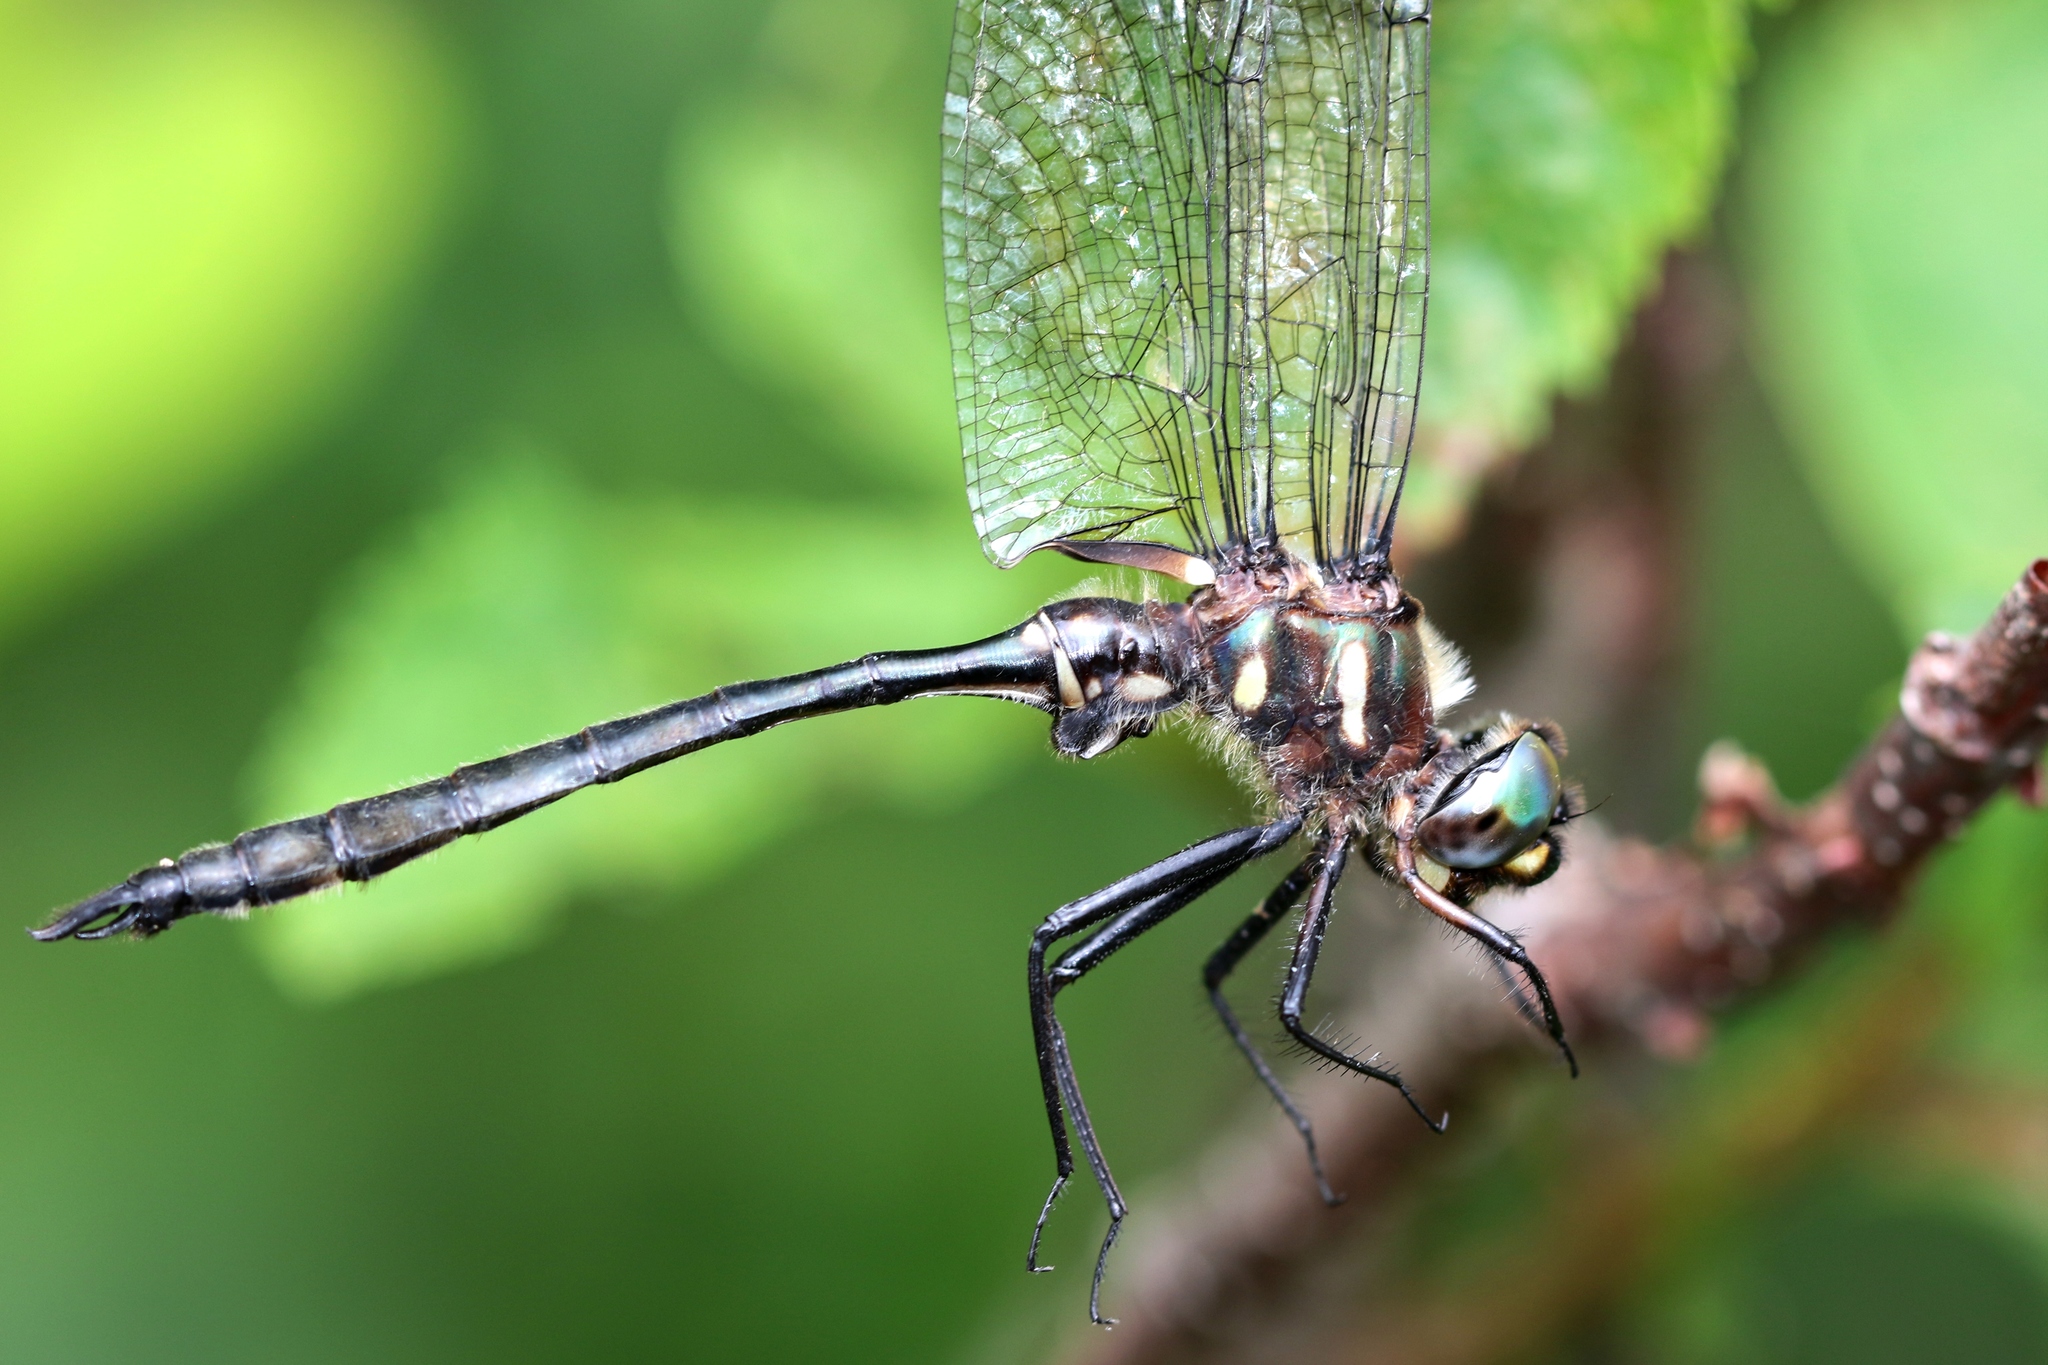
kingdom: Animalia
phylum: Arthropoda
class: Insecta
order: Odonata
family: Corduliidae
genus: Somatochlora
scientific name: Somatochlora elongata
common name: Ski-tipped emerald
